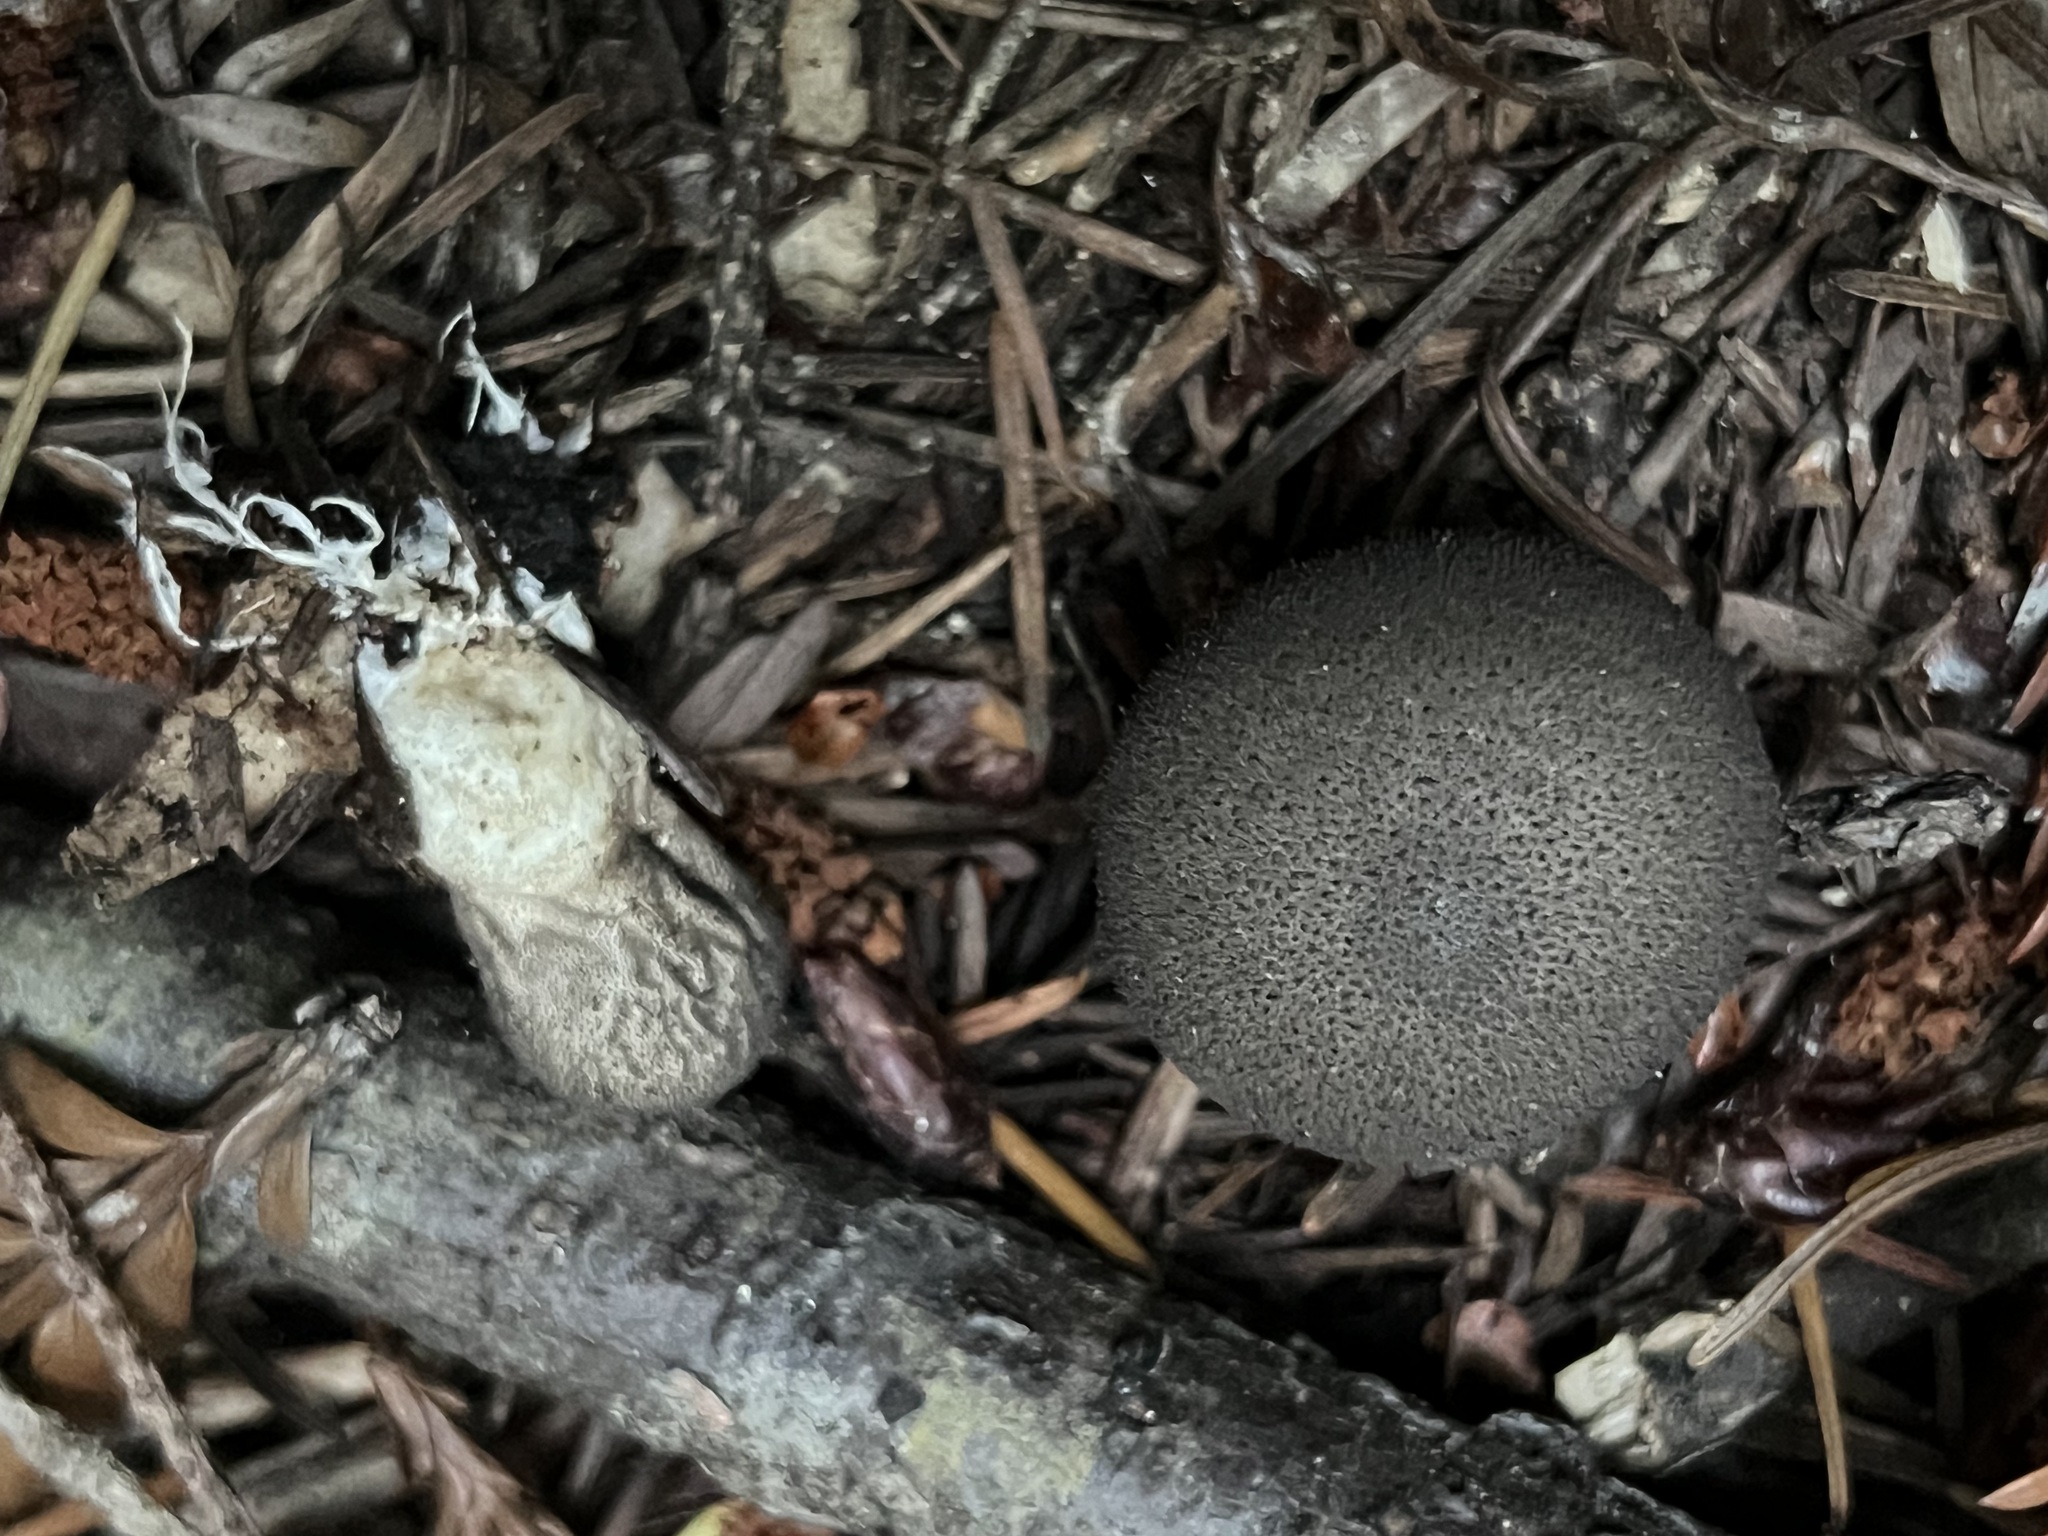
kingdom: Fungi
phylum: Basidiomycota
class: Agaricomycetes
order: Agaricales
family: Lycoperdaceae
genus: Lycoperdon
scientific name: Lycoperdon umbrinum
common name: Umber-brown puffball
